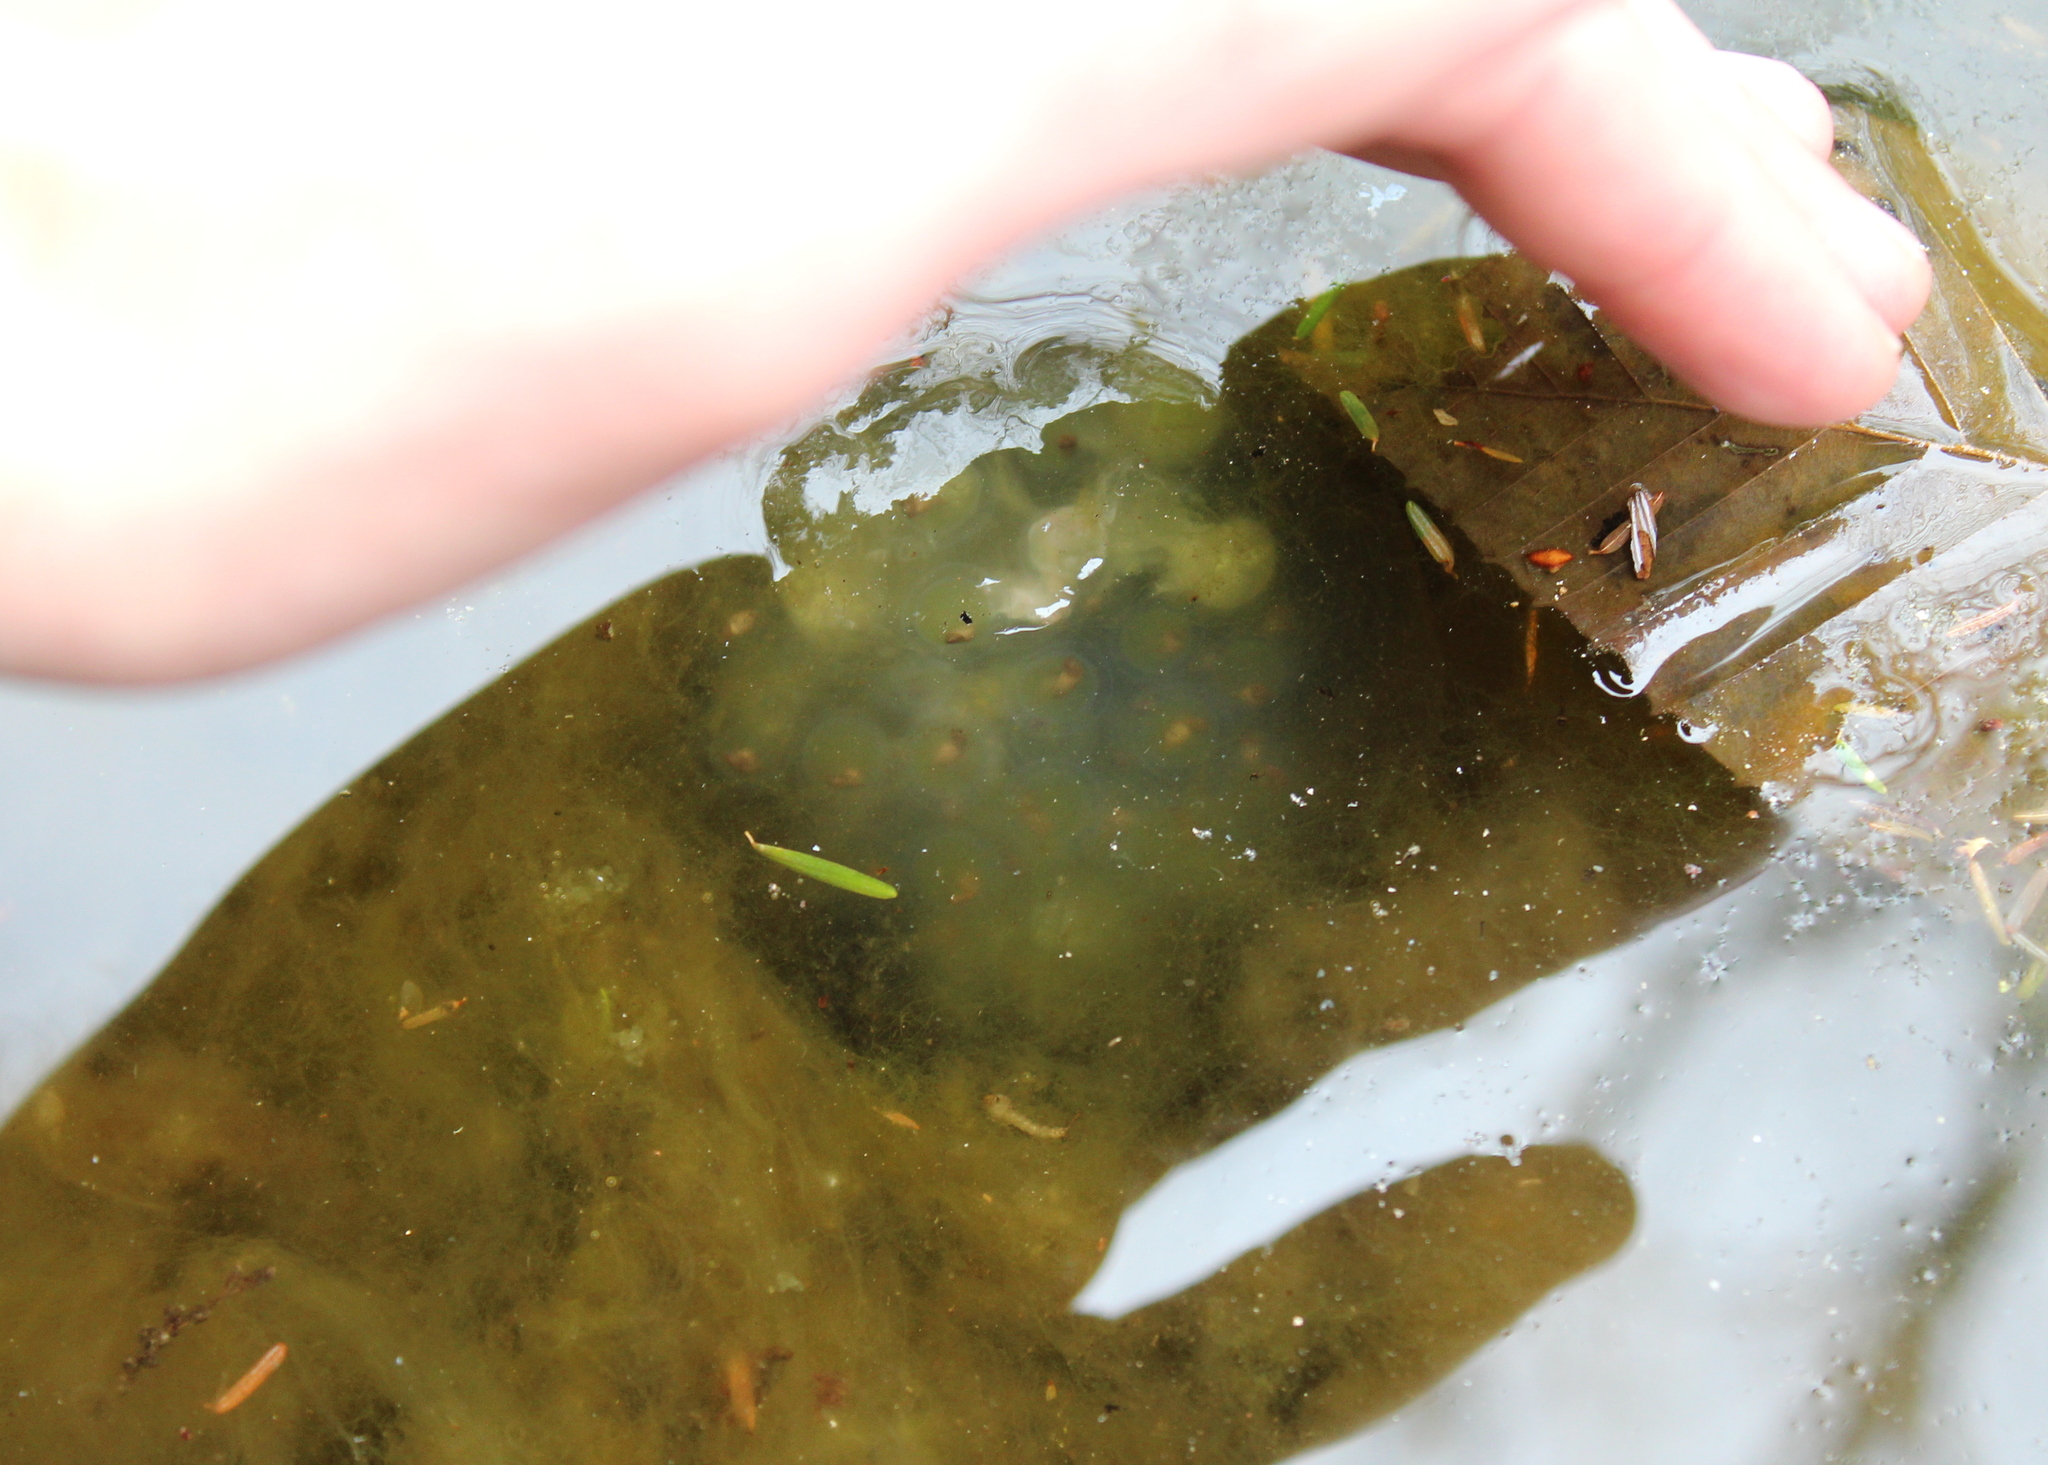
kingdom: Animalia
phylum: Chordata
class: Amphibia
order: Caudata
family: Ambystomatidae
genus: Ambystoma
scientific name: Ambystoma maculatum
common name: Spotted salamander
